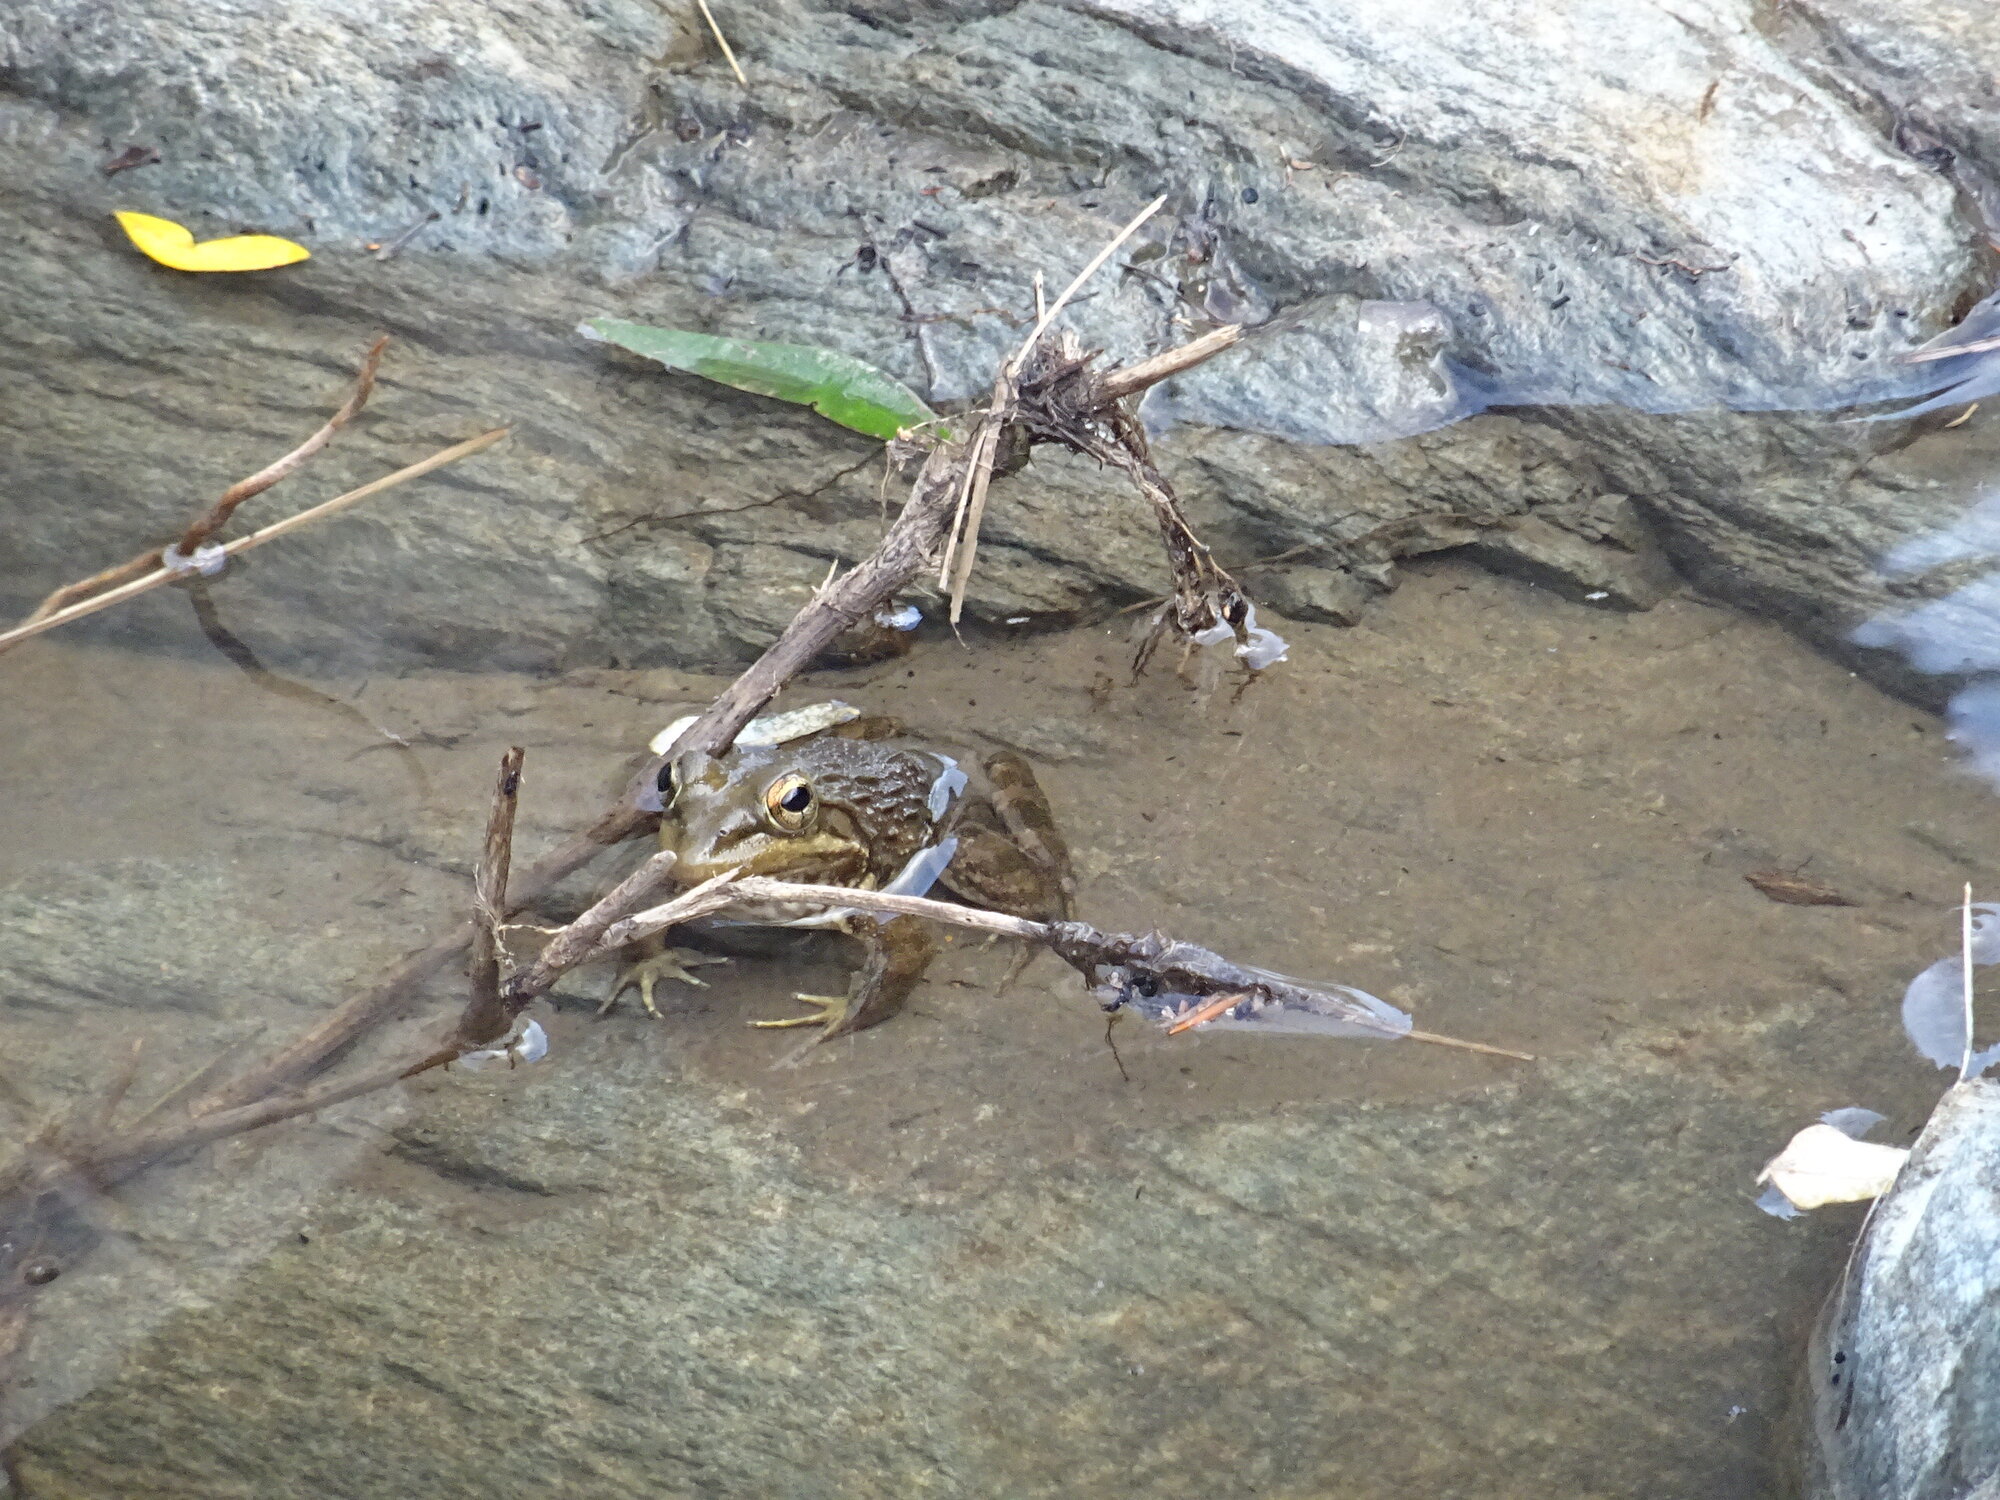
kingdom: Animalia
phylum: Chordata
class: Amphibia
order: Anura
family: Pyxicephalidae
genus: Amietia
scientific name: Amietia fuscigula
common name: Cape rana
